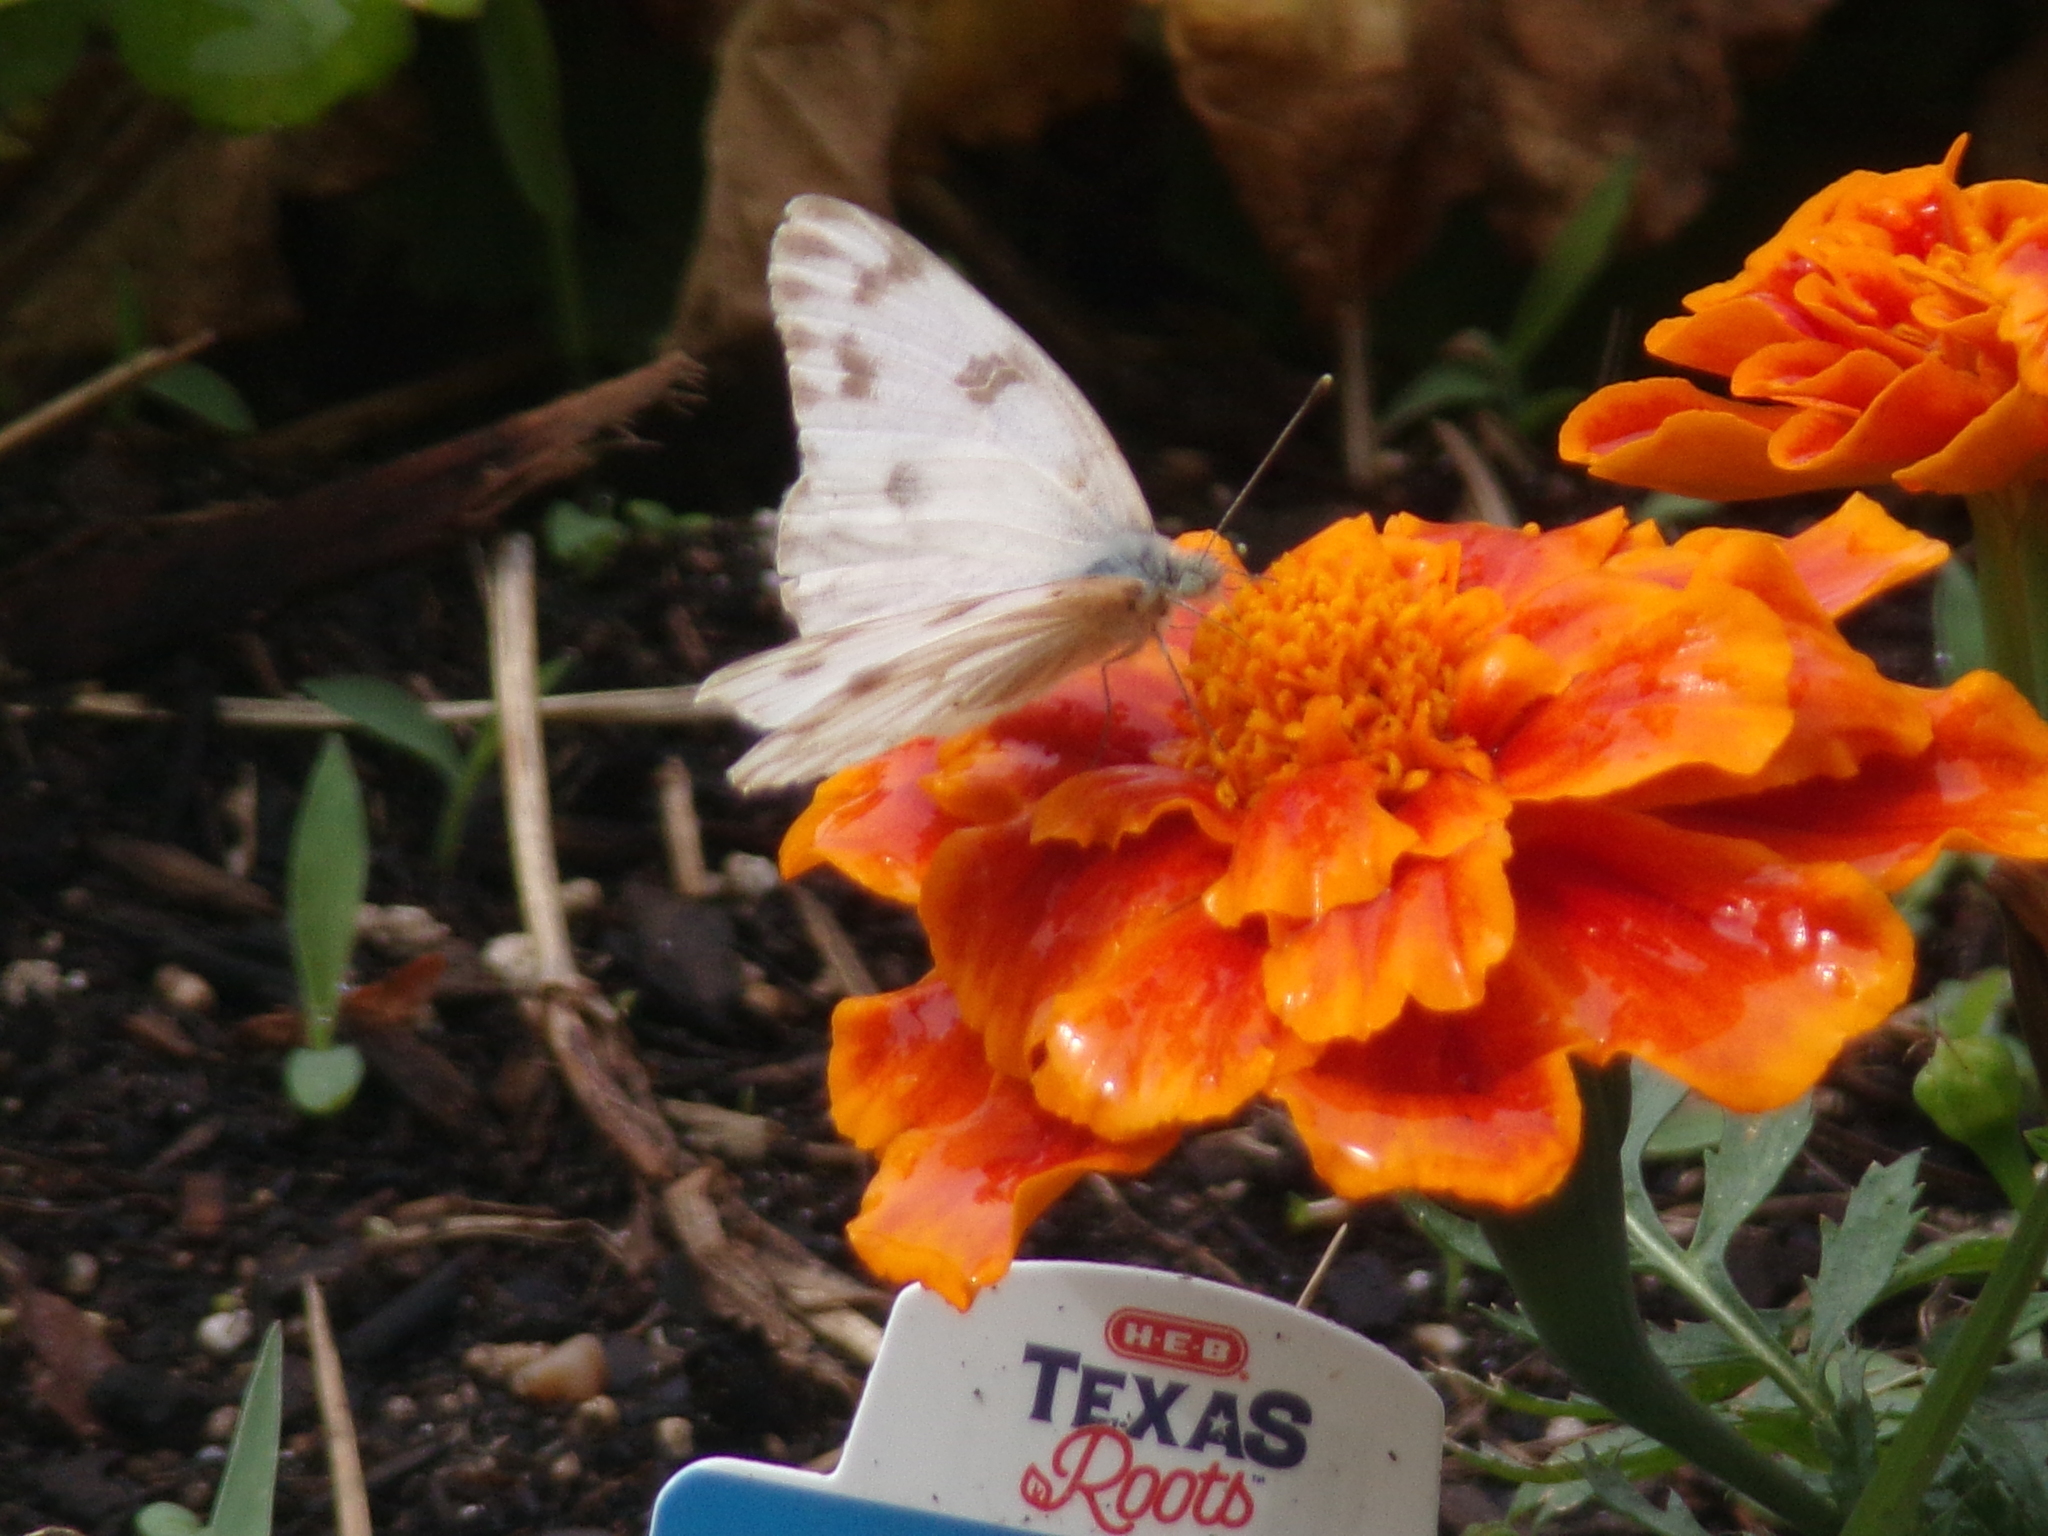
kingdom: Animalia
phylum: Arthropoda
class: Insecta
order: Lepidoptera
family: Pieridae
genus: Pontia
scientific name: Pontia protodice
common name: Checkered white
